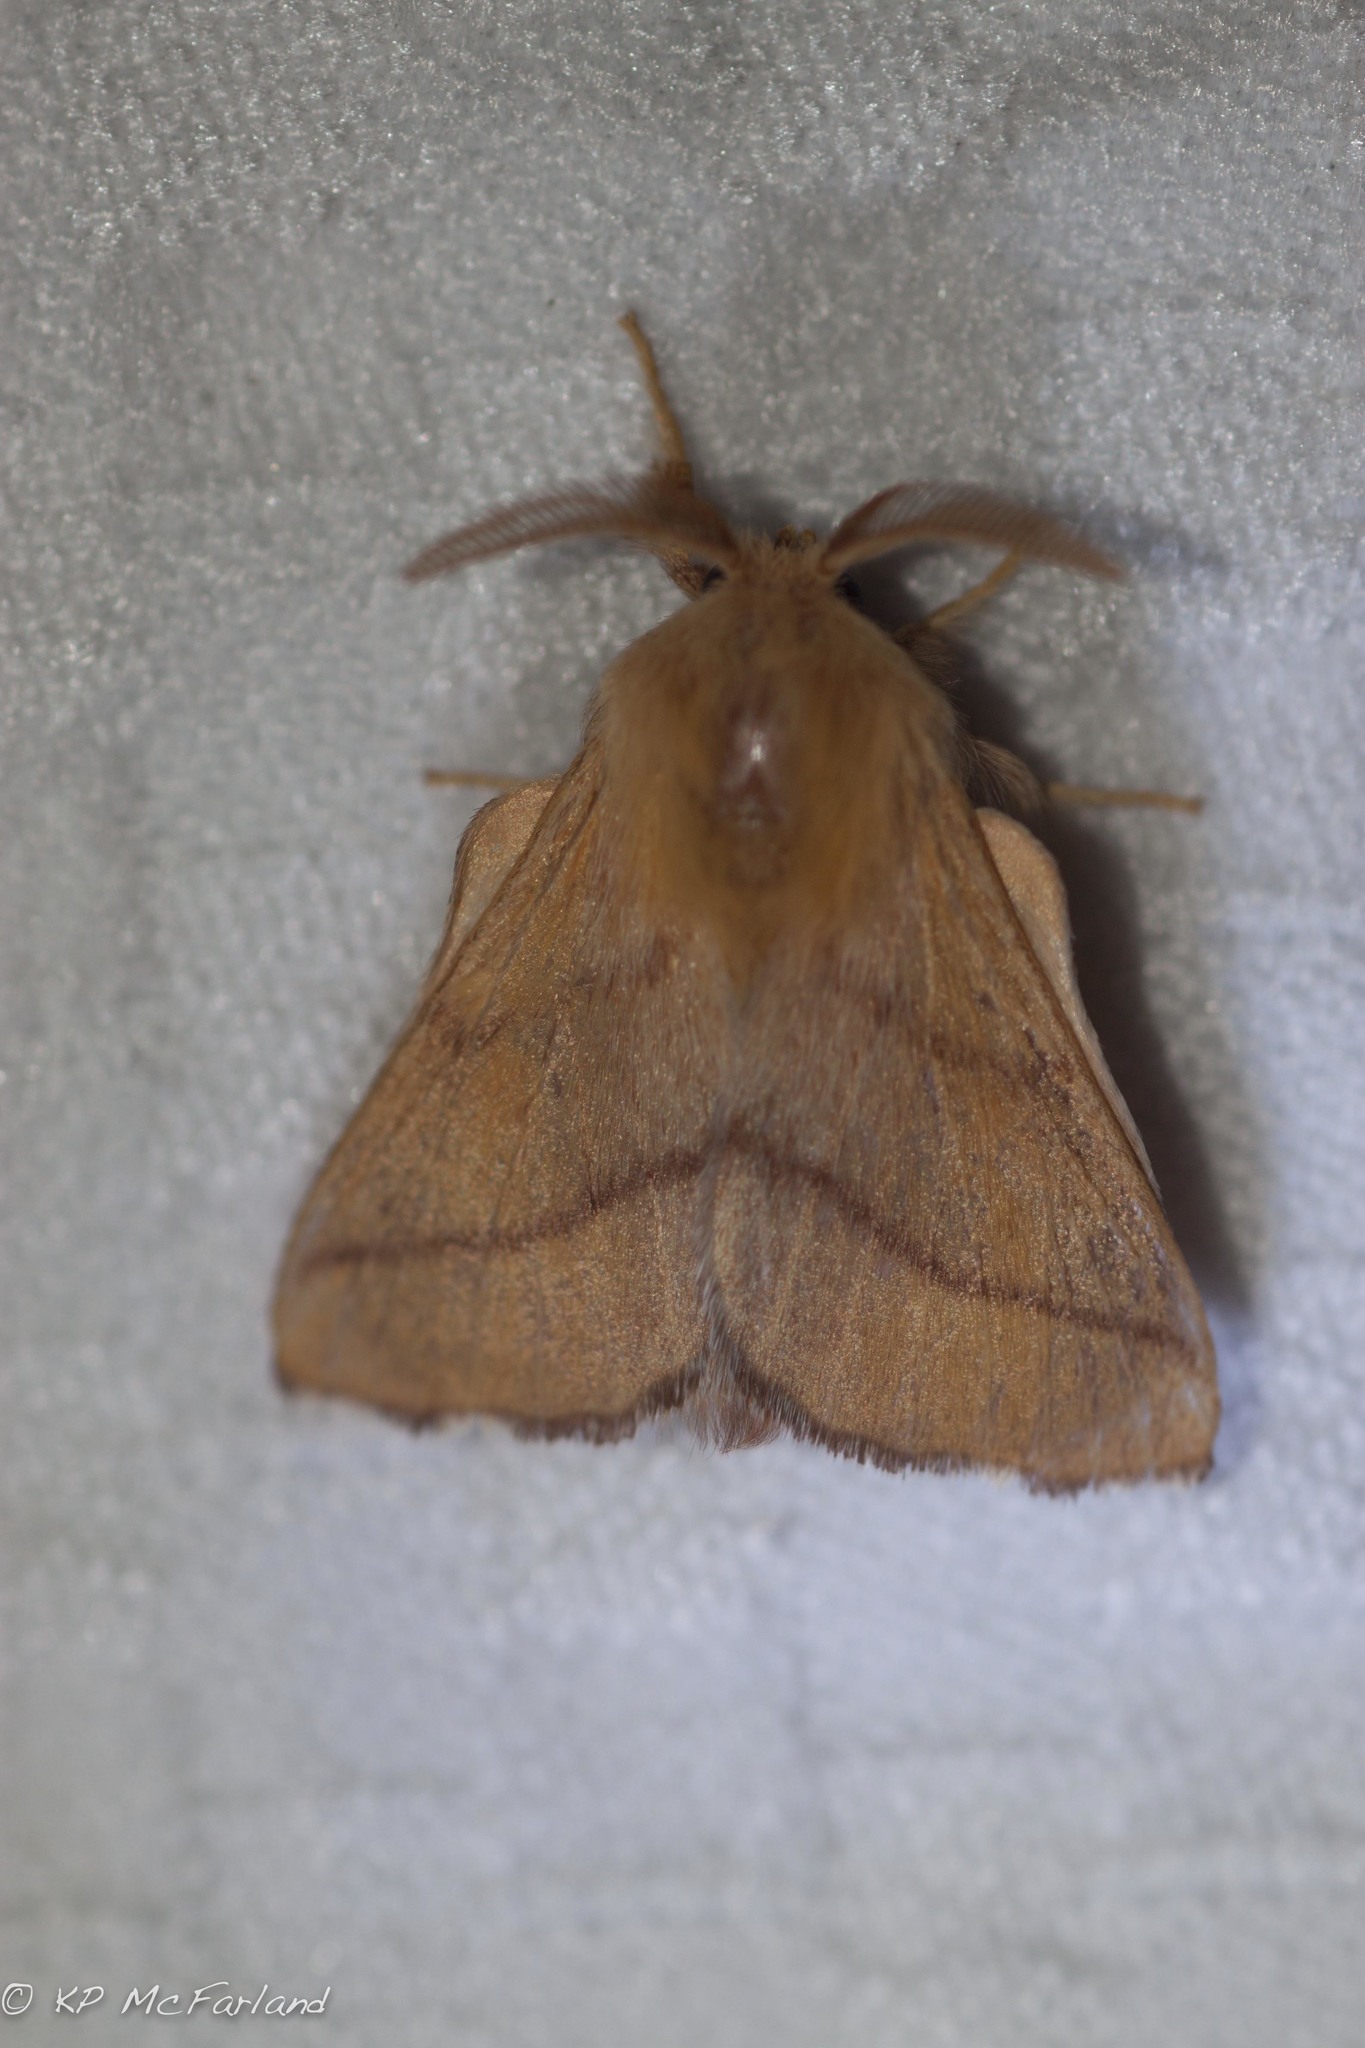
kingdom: Animalia
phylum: Arthropoda
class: Insecta
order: Lepidoptera
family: Lasiocampidae
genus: Malacosoma
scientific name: Malacosoma disstria
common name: Forest tent caterpillar
